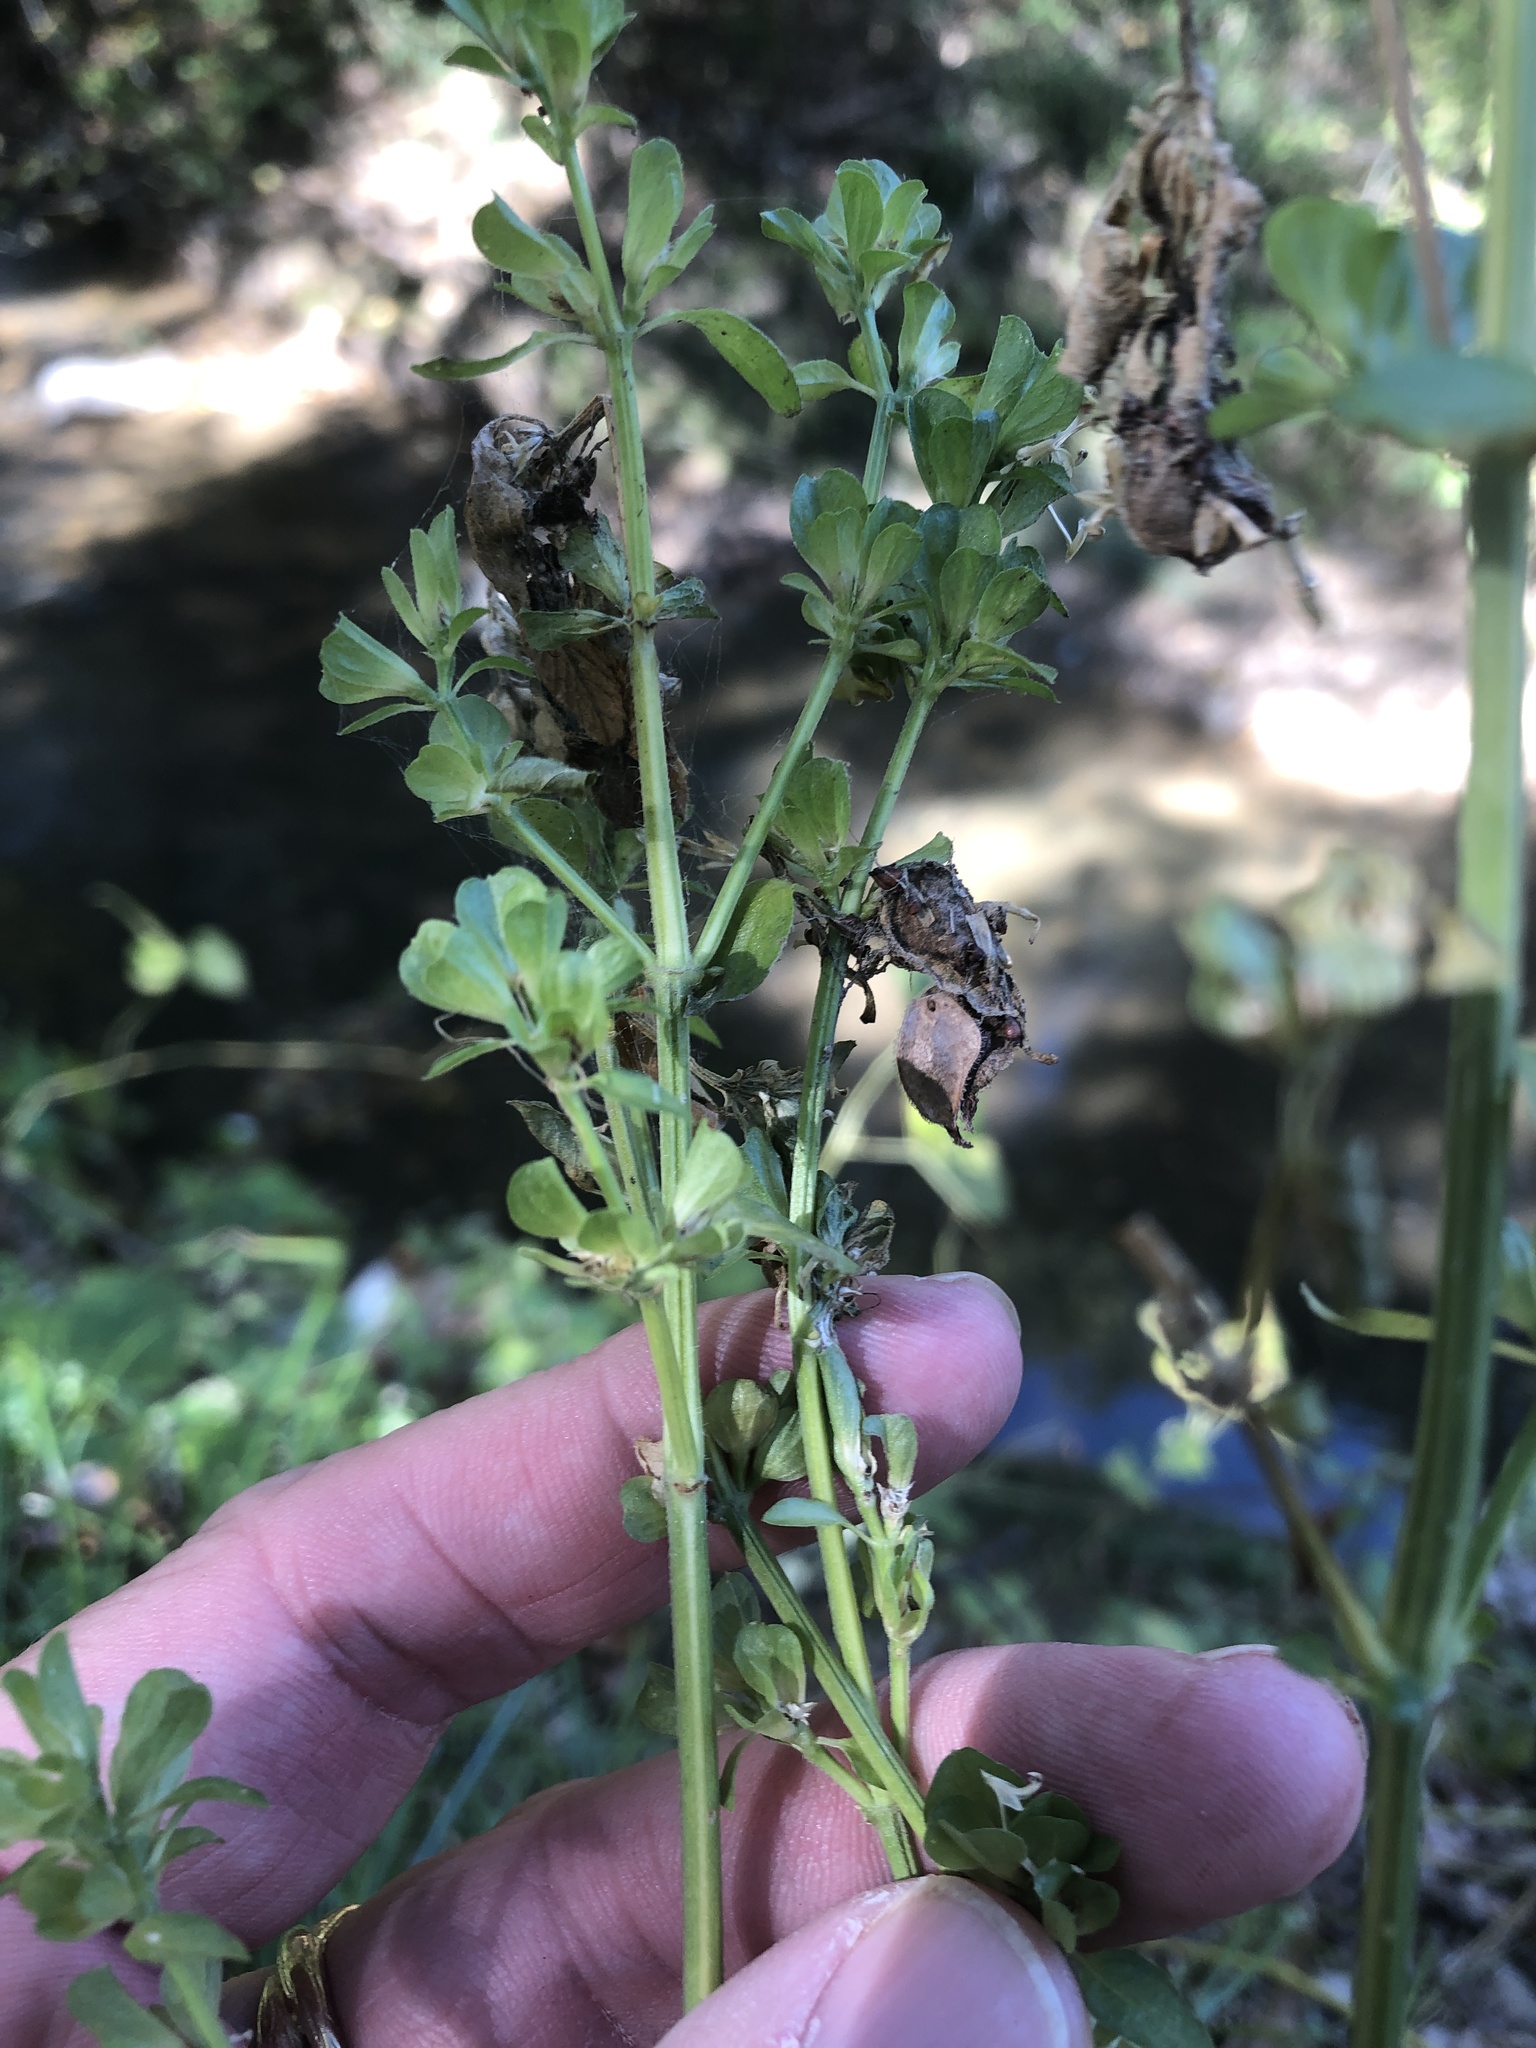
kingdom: Plantae
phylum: Tracheophyta
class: Magnoliopsida
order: Lamiales
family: Acanthaceae
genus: Dicliptera
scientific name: Dicliptera brachiata
